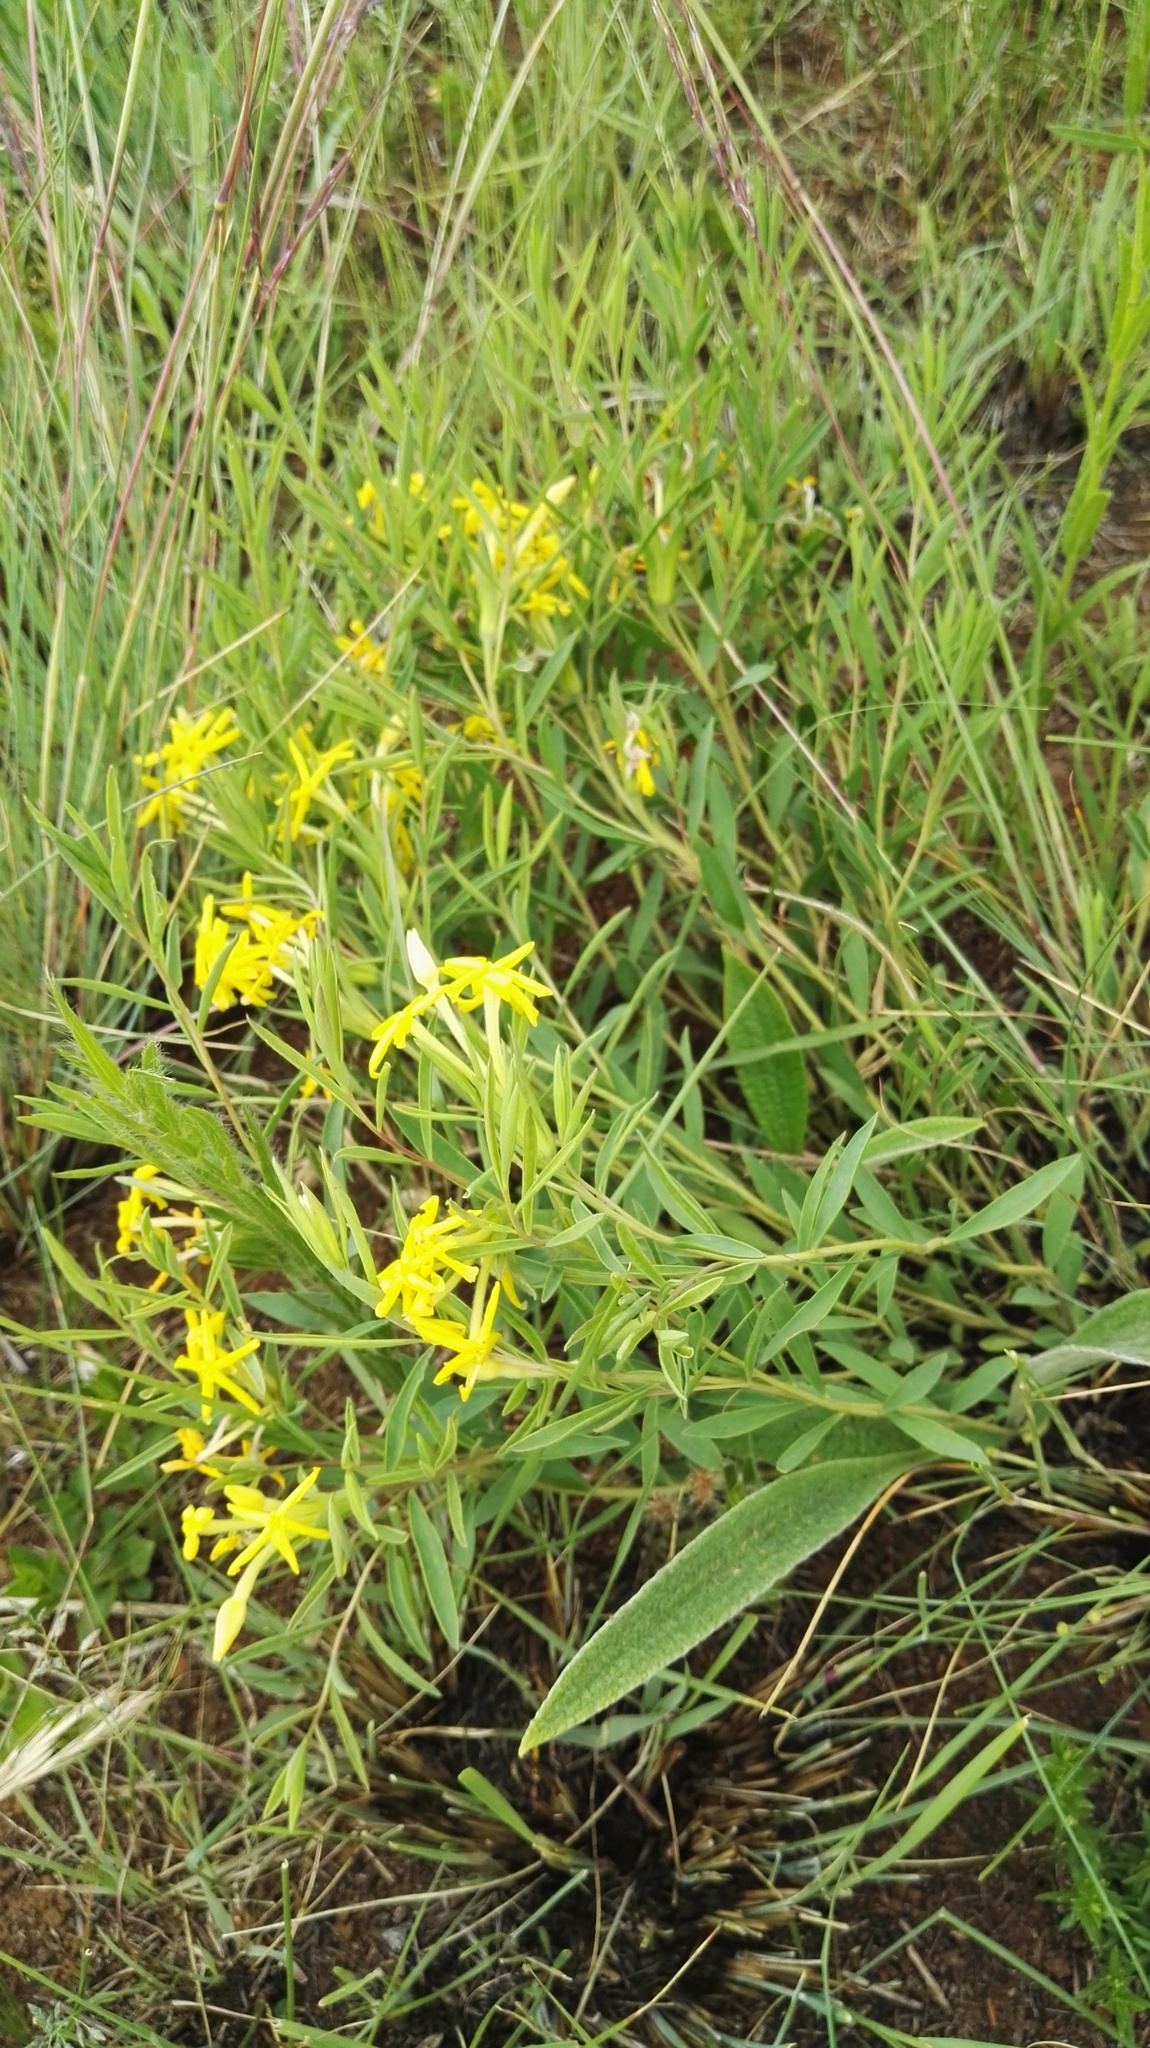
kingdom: Plantae
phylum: Tracheophyta
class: Magnoliopsida
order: Malvales
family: Thymelaeaceae
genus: Gnidia
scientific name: Gnidia caffra
